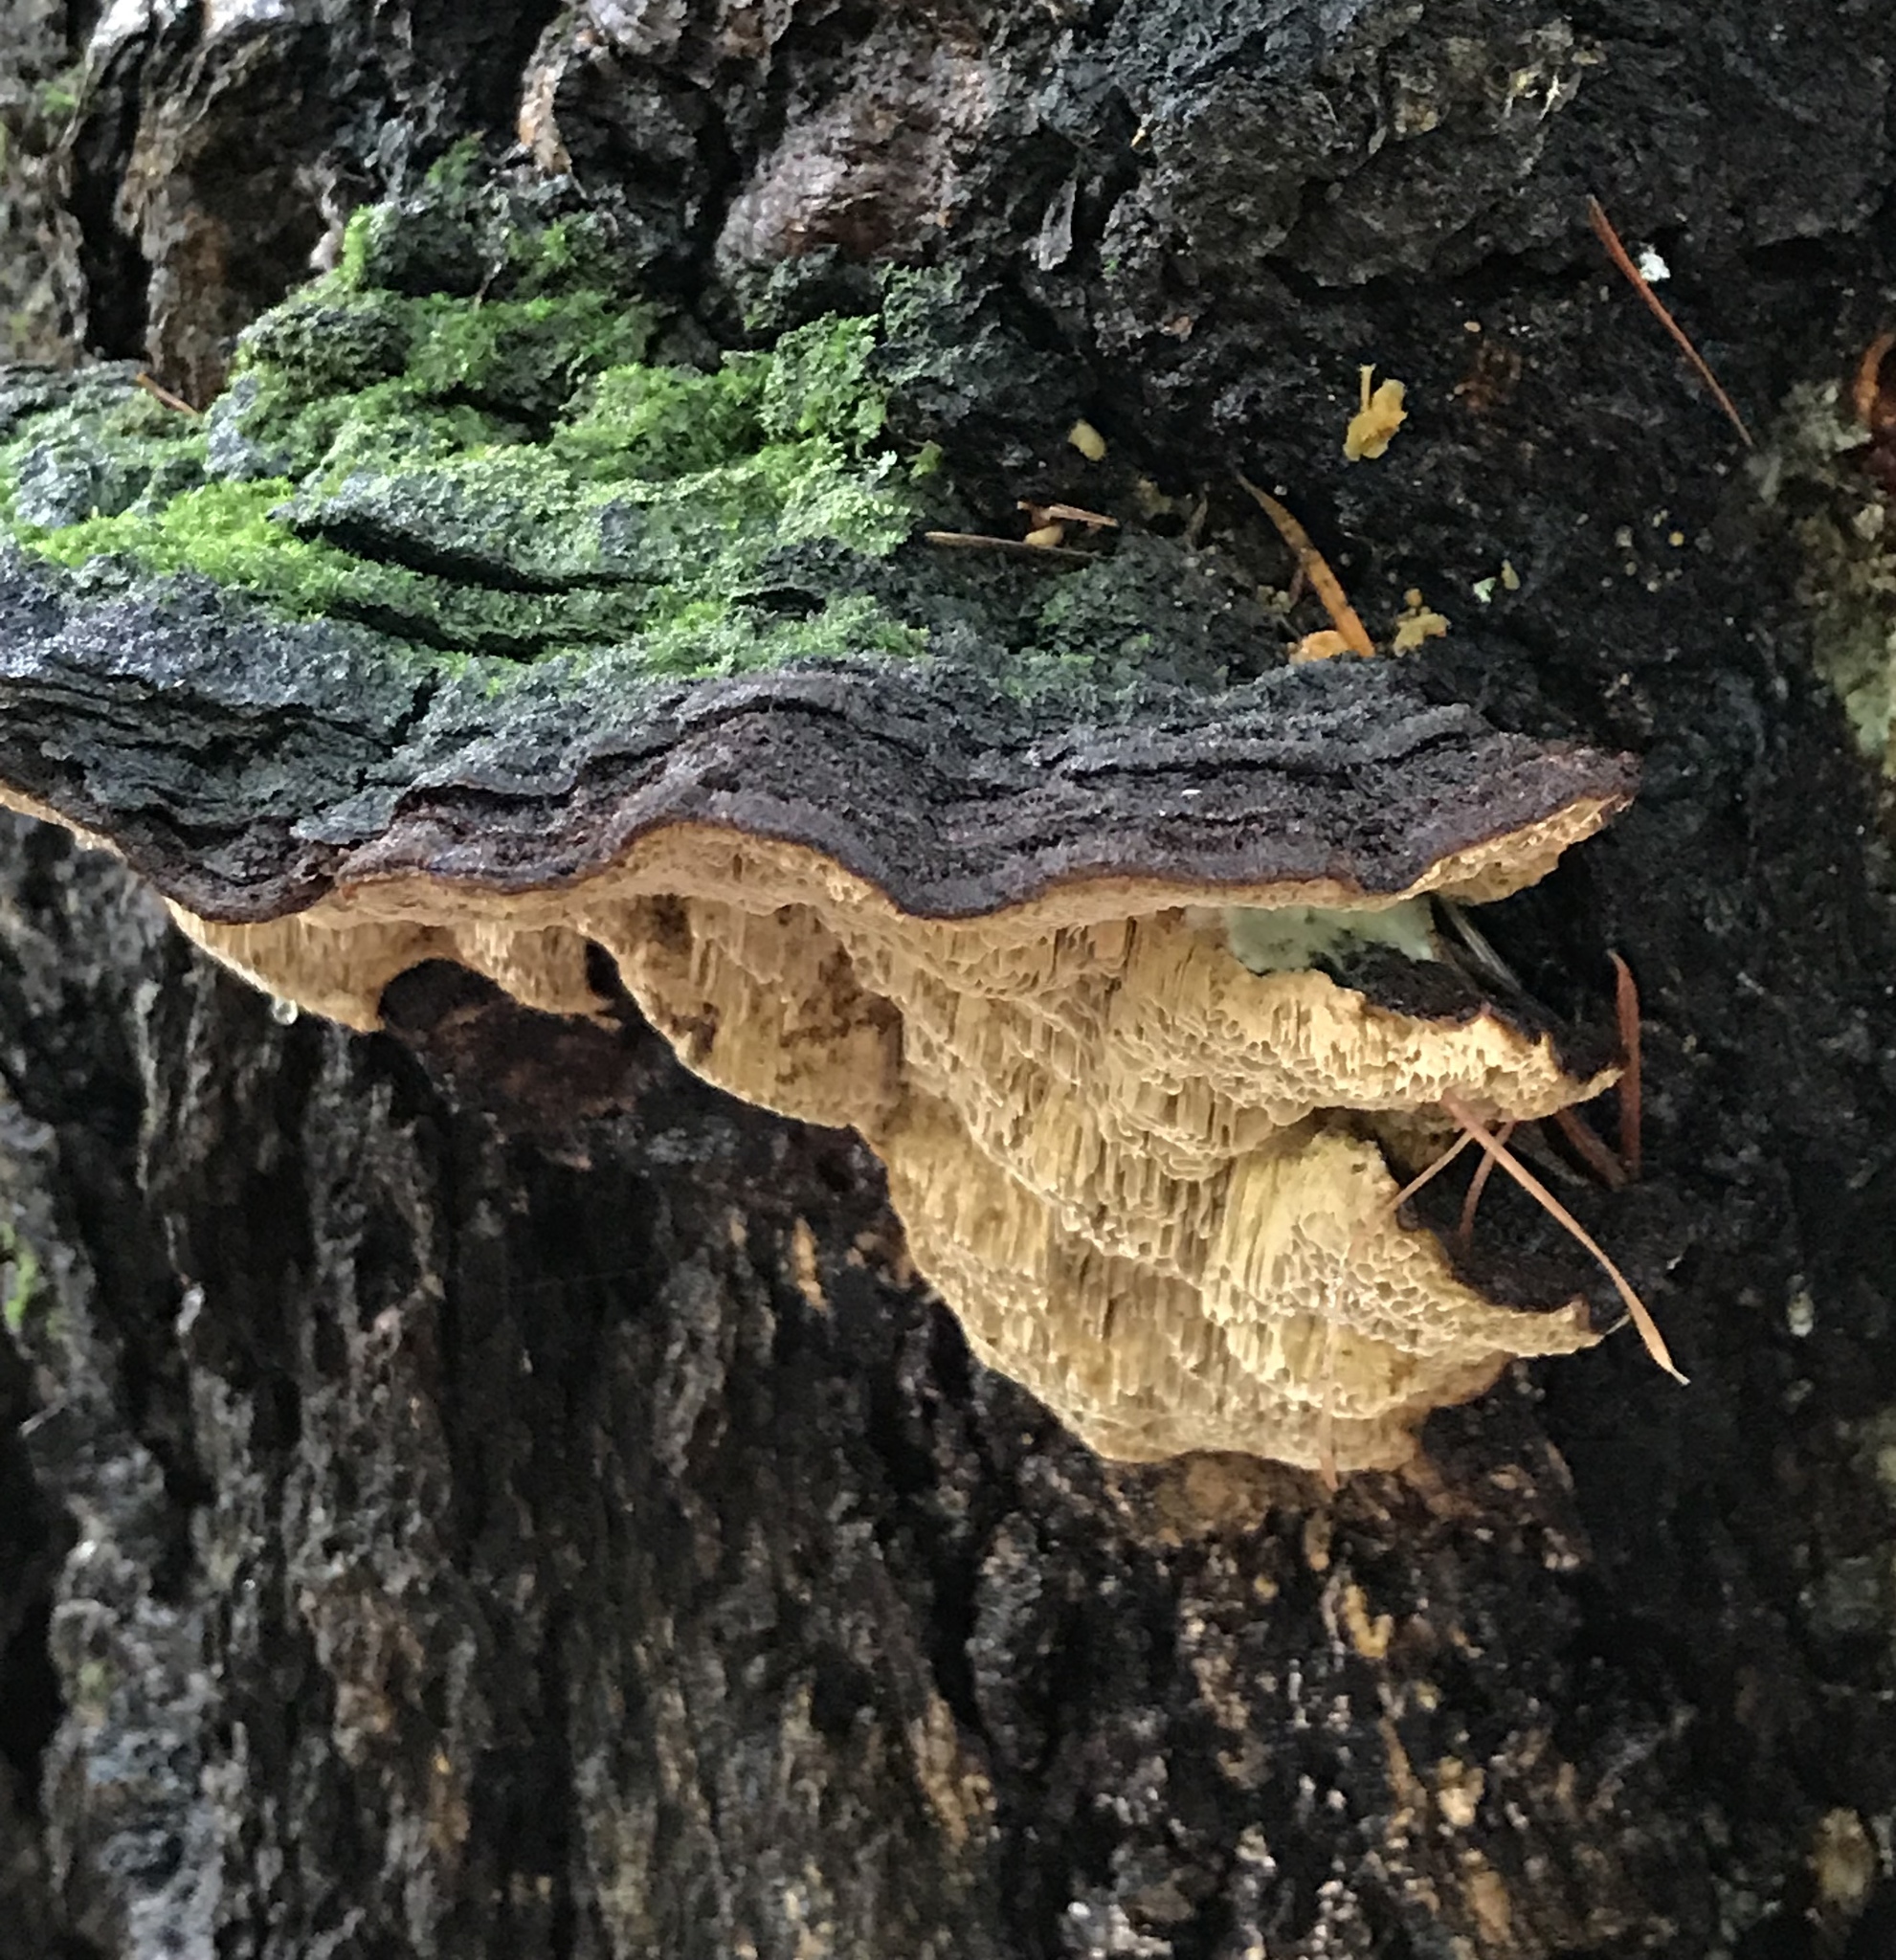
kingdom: Fungi
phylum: Basidiomycota
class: Agaricomycetes
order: Hymenochaetales
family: Hymenochaetaceae
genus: Porodaedalea
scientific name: Porodaedalea pini
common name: Pine bracket
